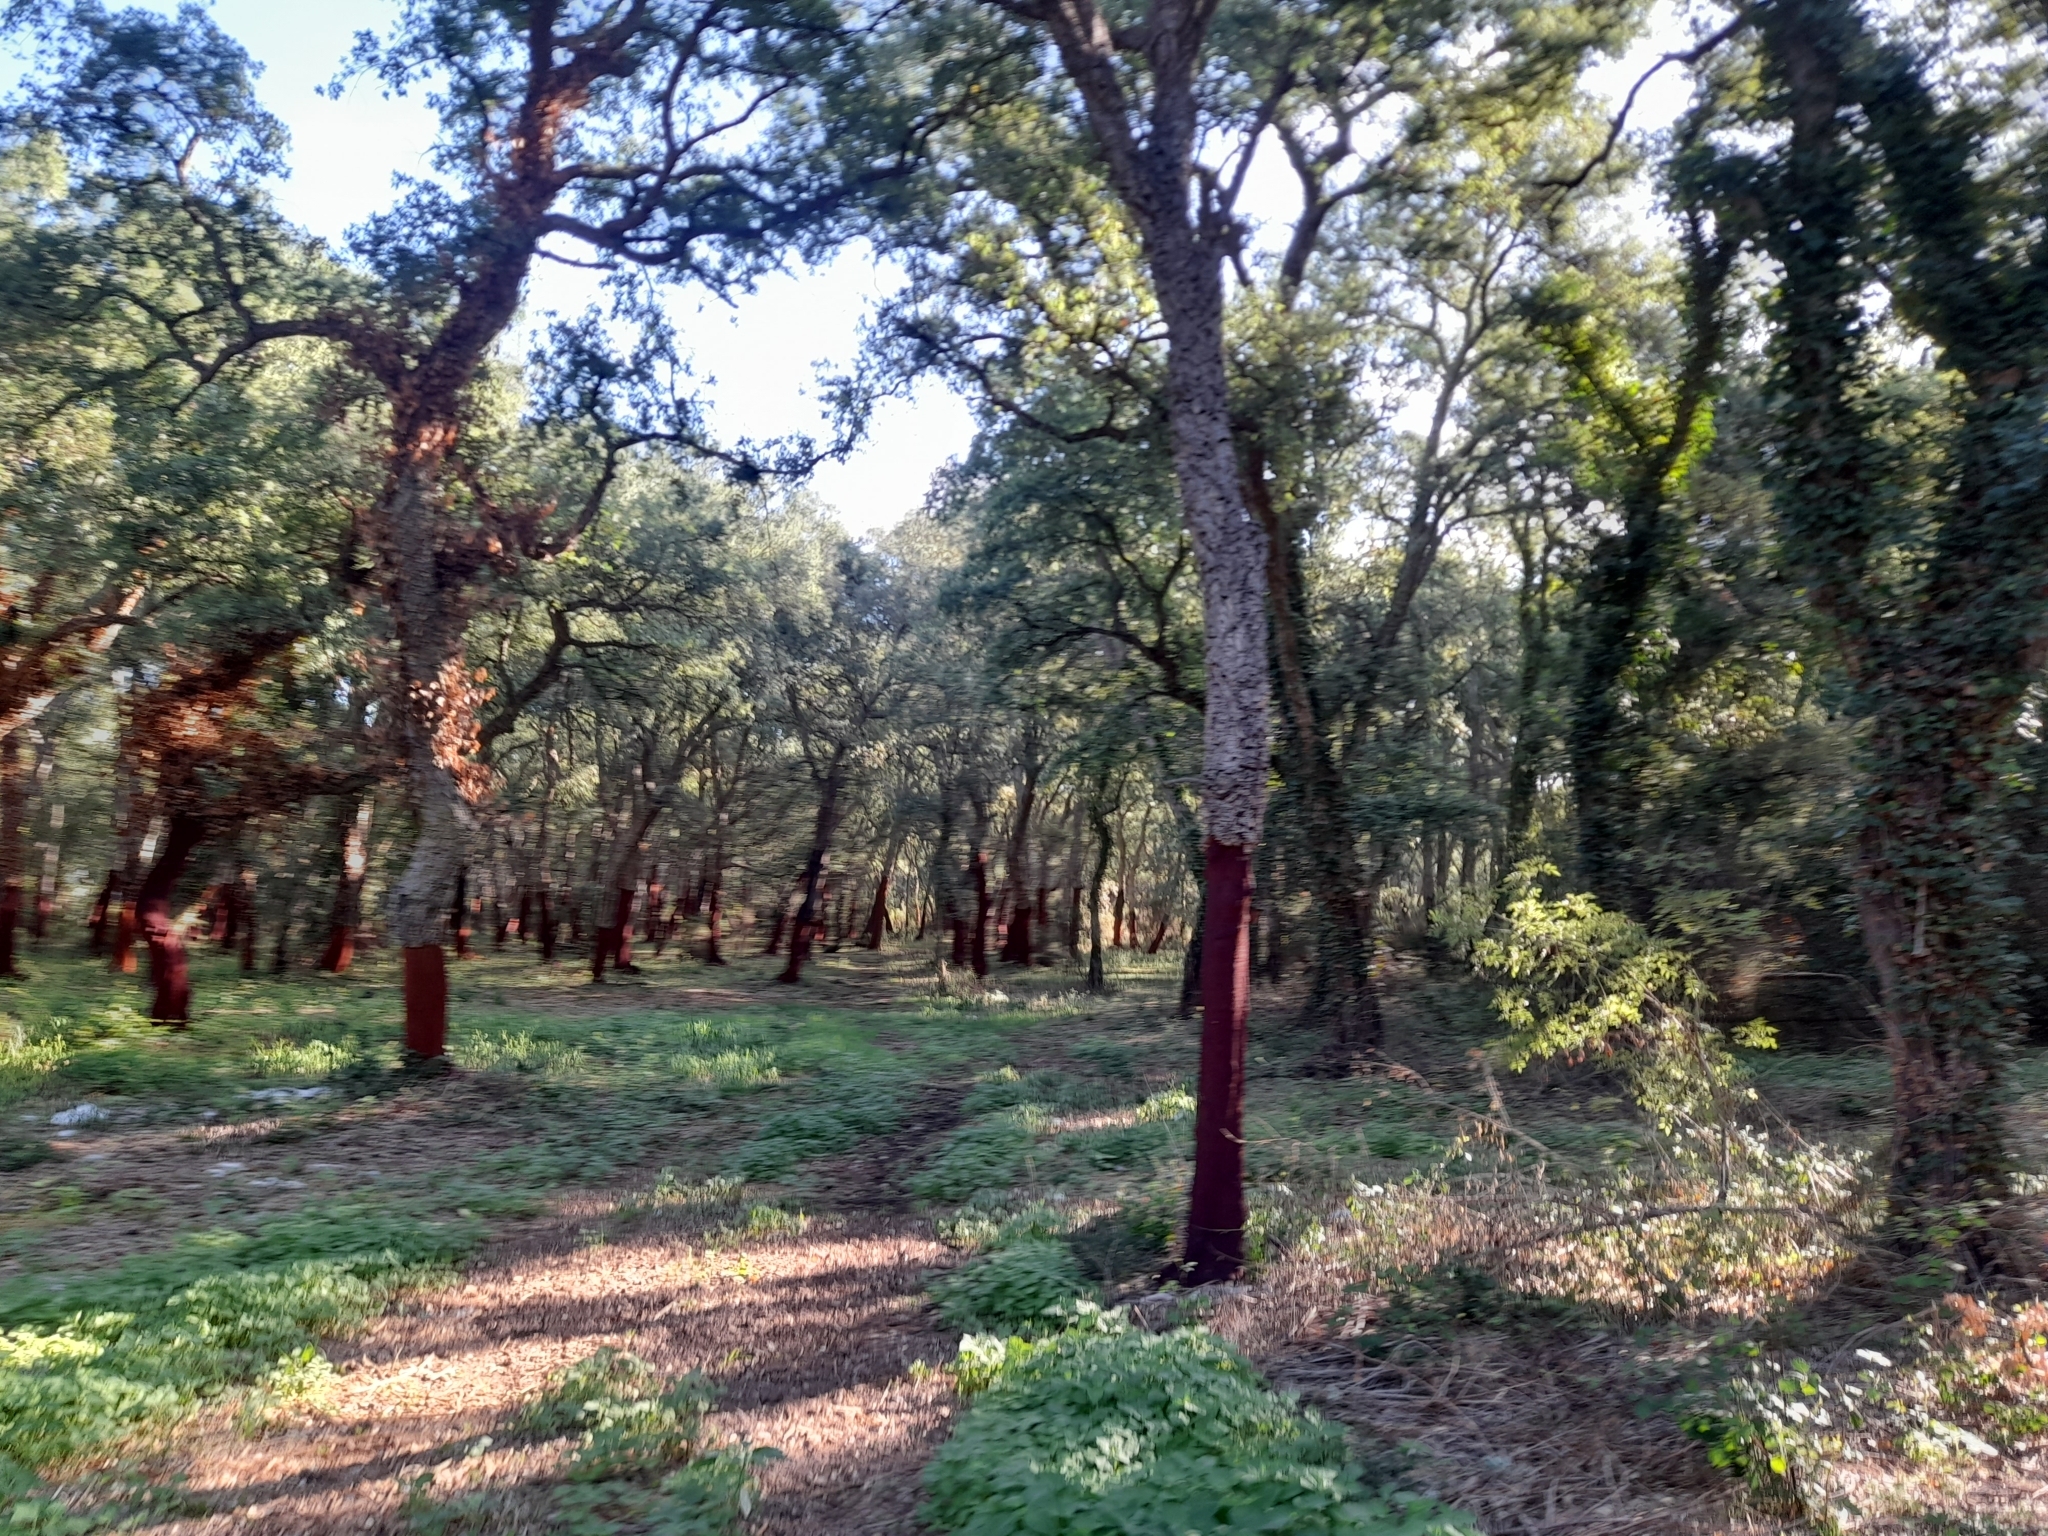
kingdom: Plantae
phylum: Tracheophyta
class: Magnoliopsida
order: Fagales
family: Fagaceae
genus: Quercus
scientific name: Quercus suber
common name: Cork oak
